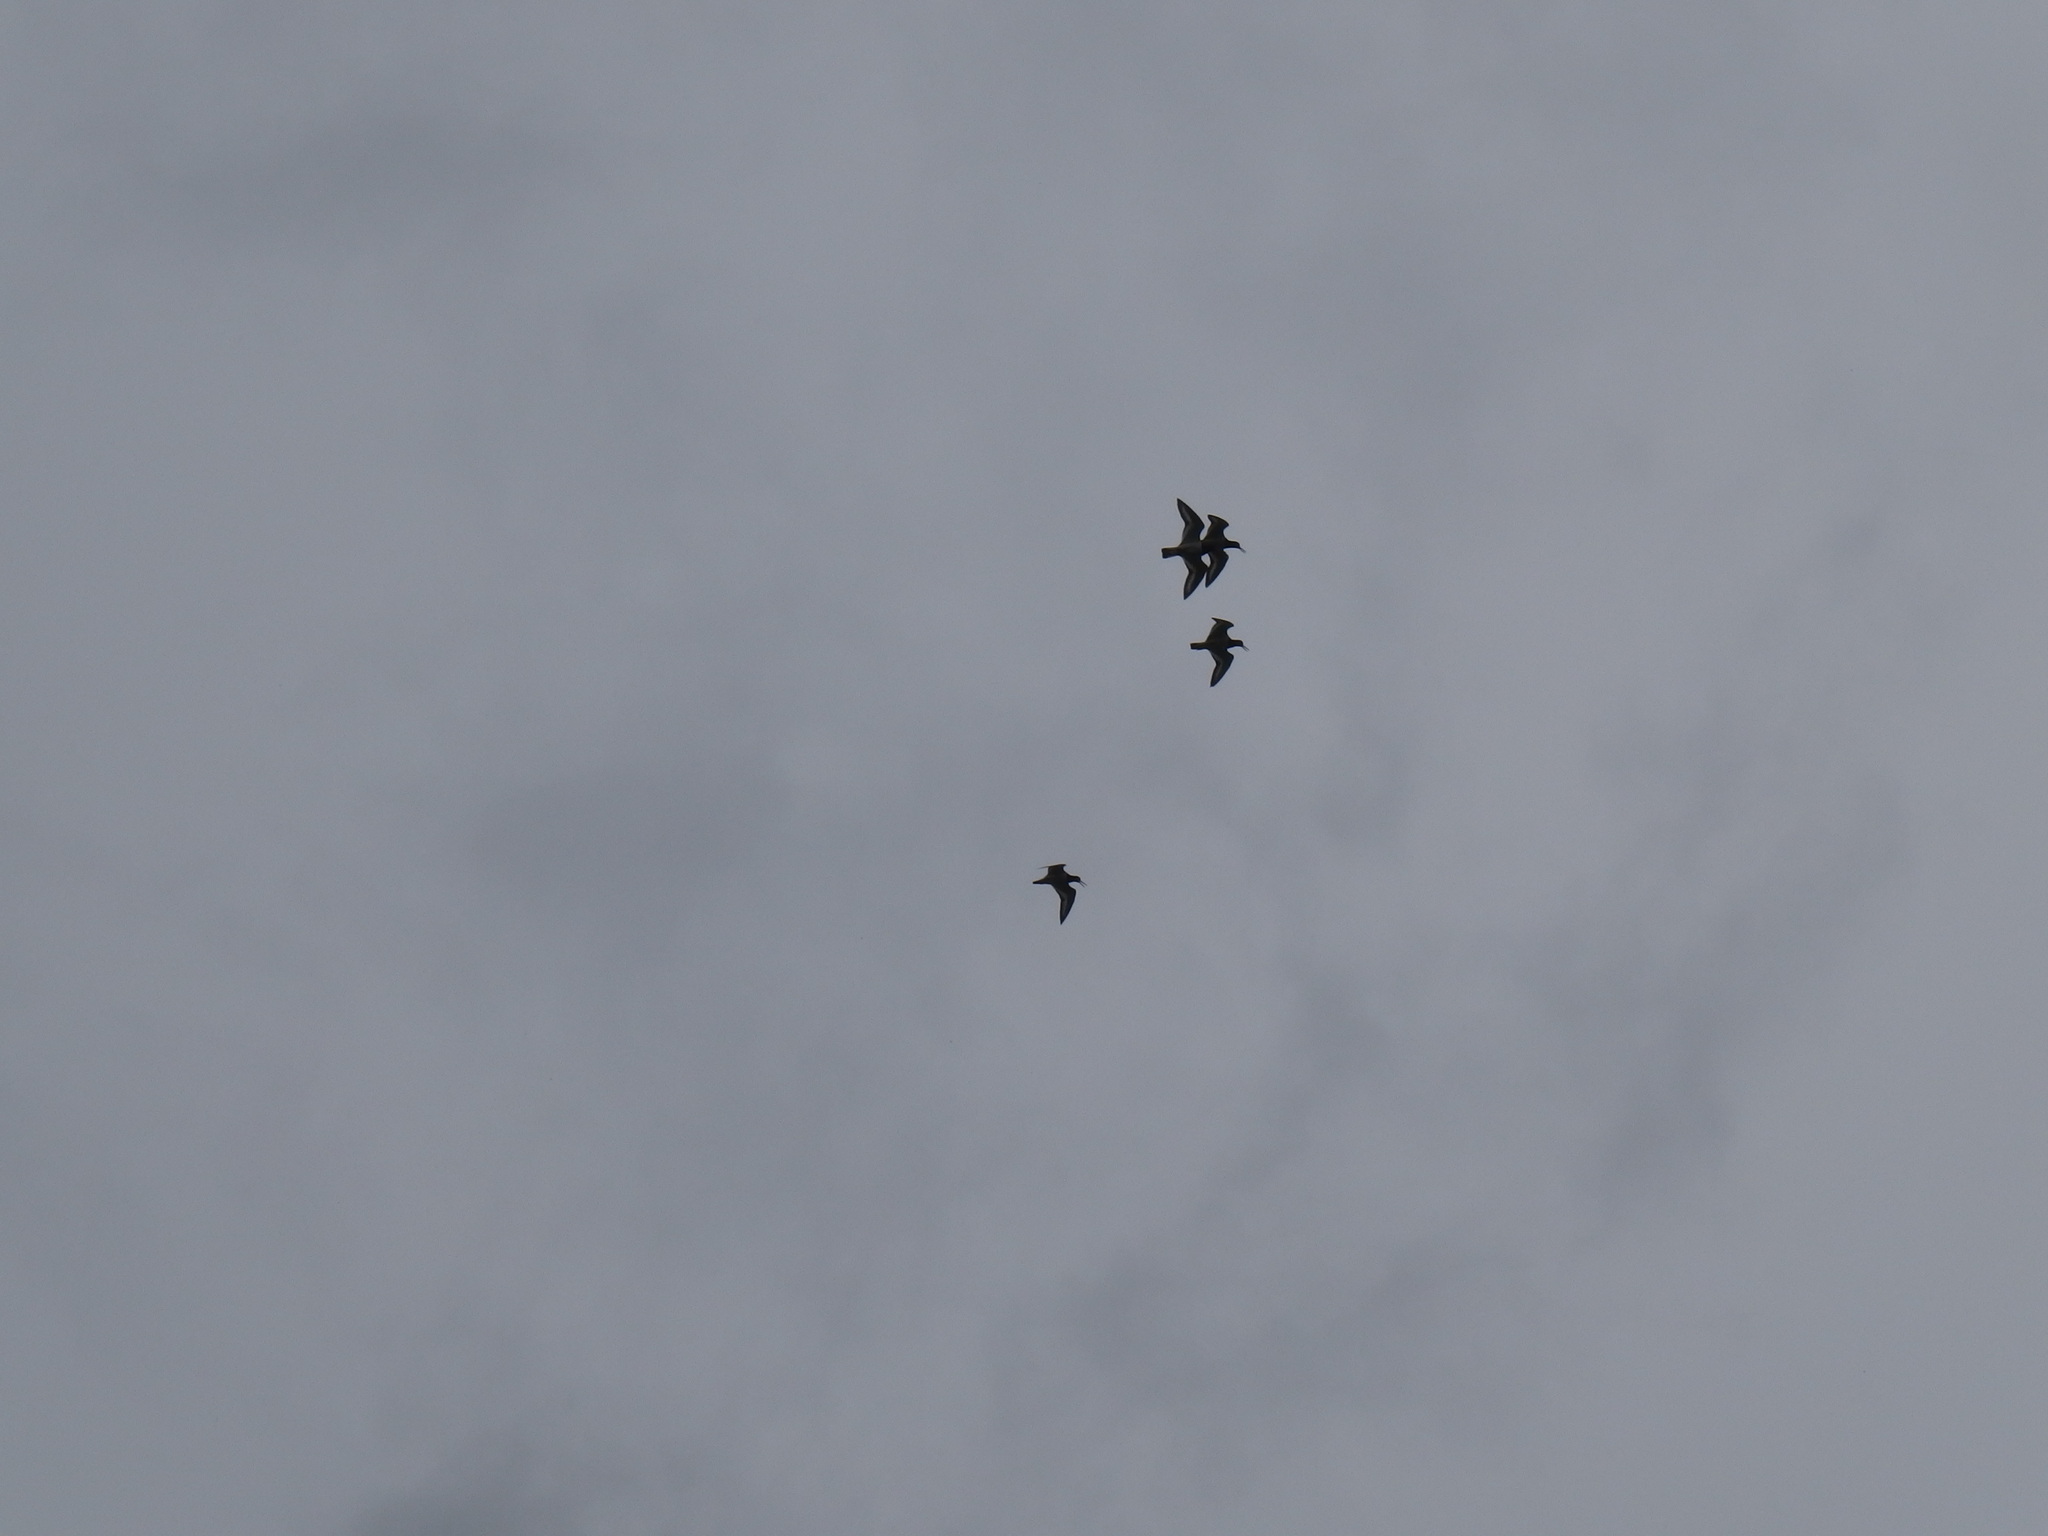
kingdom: Animalia
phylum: Chordata
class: Aves
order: Charadriiformes
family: Haematopodidae
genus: Haematopus
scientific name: Haematopus ostralegus
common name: Eurasian oystercatcher
